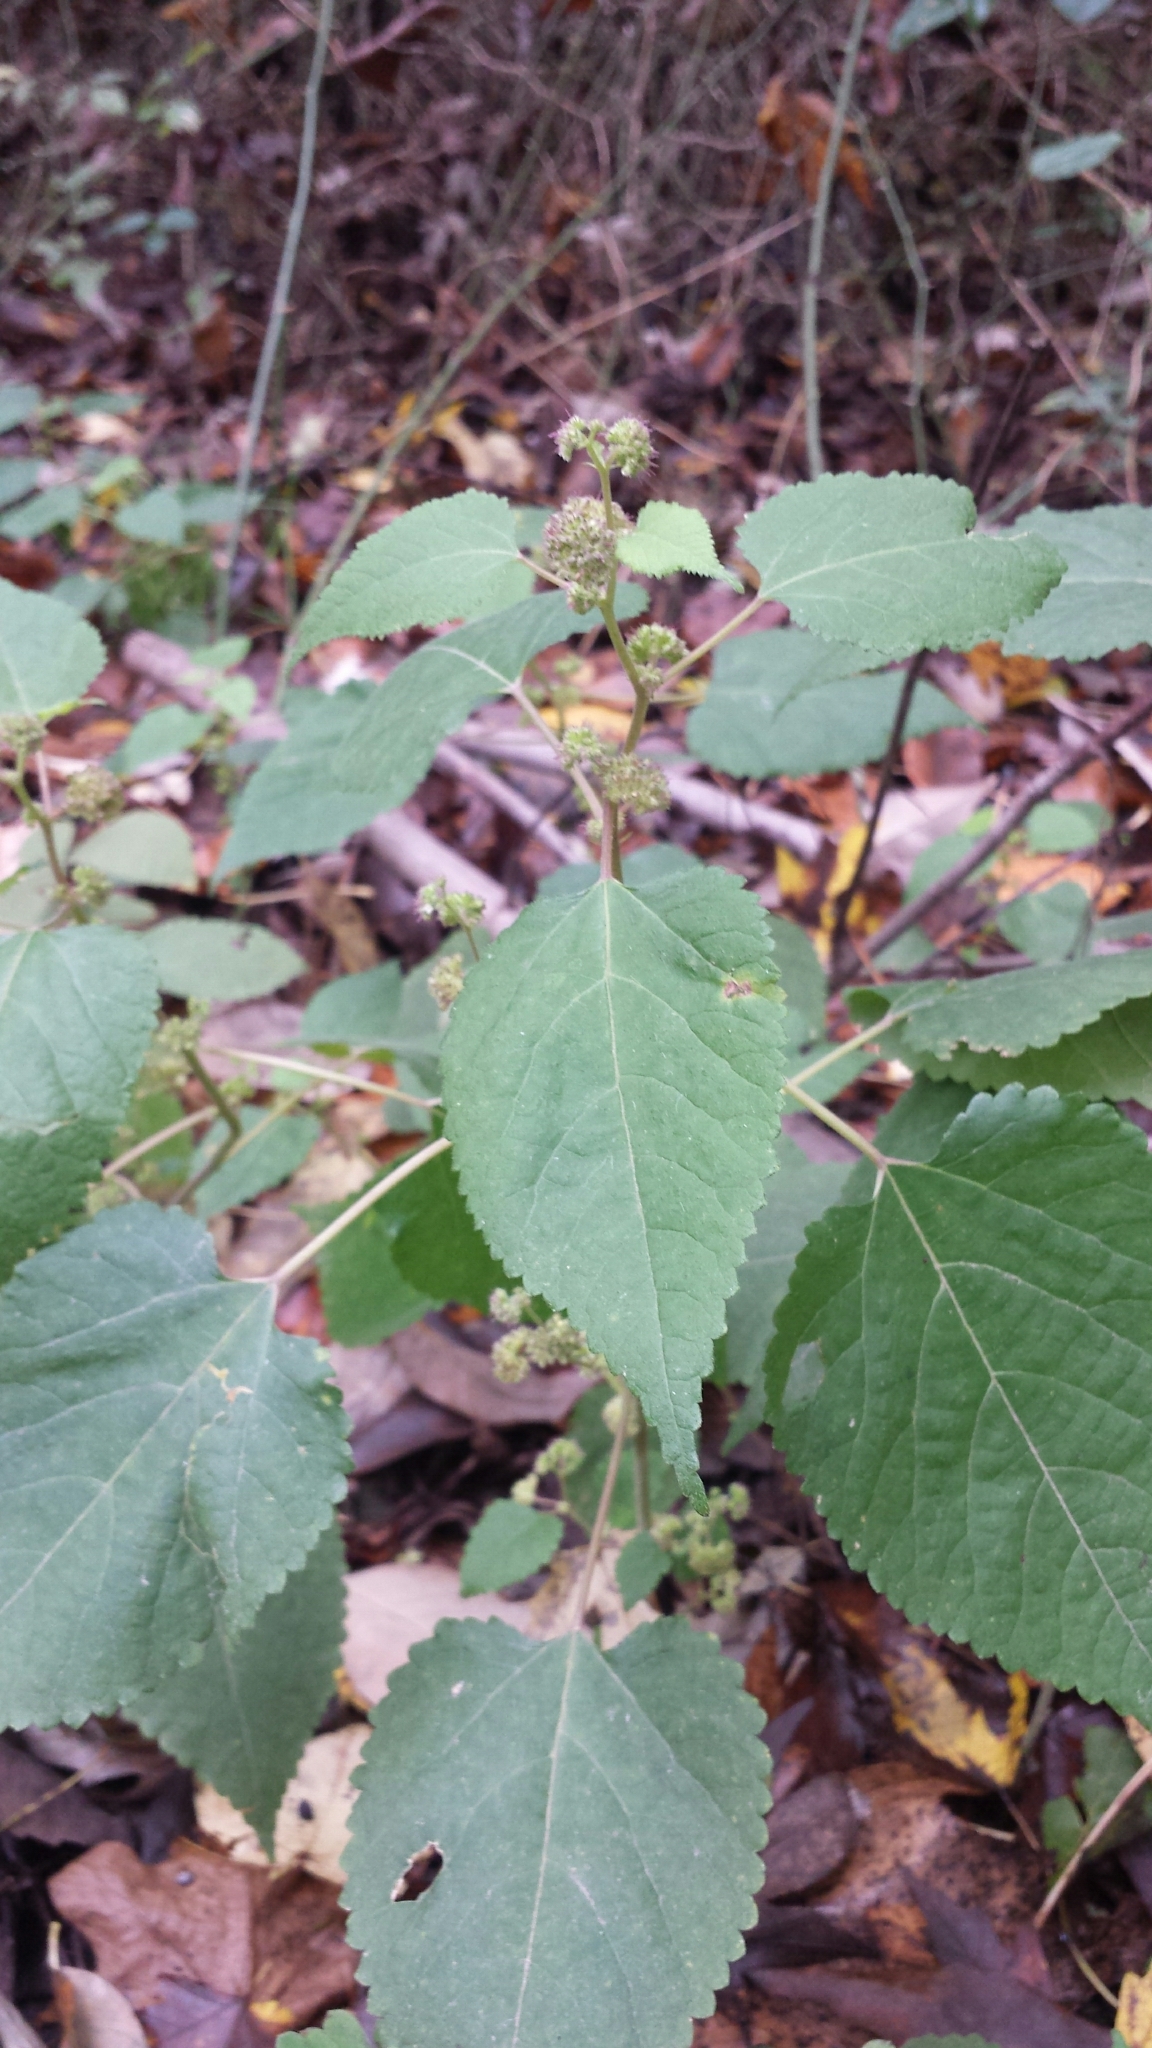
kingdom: Plantae
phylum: Tracheophyta
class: Magnoliopsida
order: Rosales
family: Moraceae
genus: Fatoua
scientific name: Fatoua villosa
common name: Hairy crabweed
